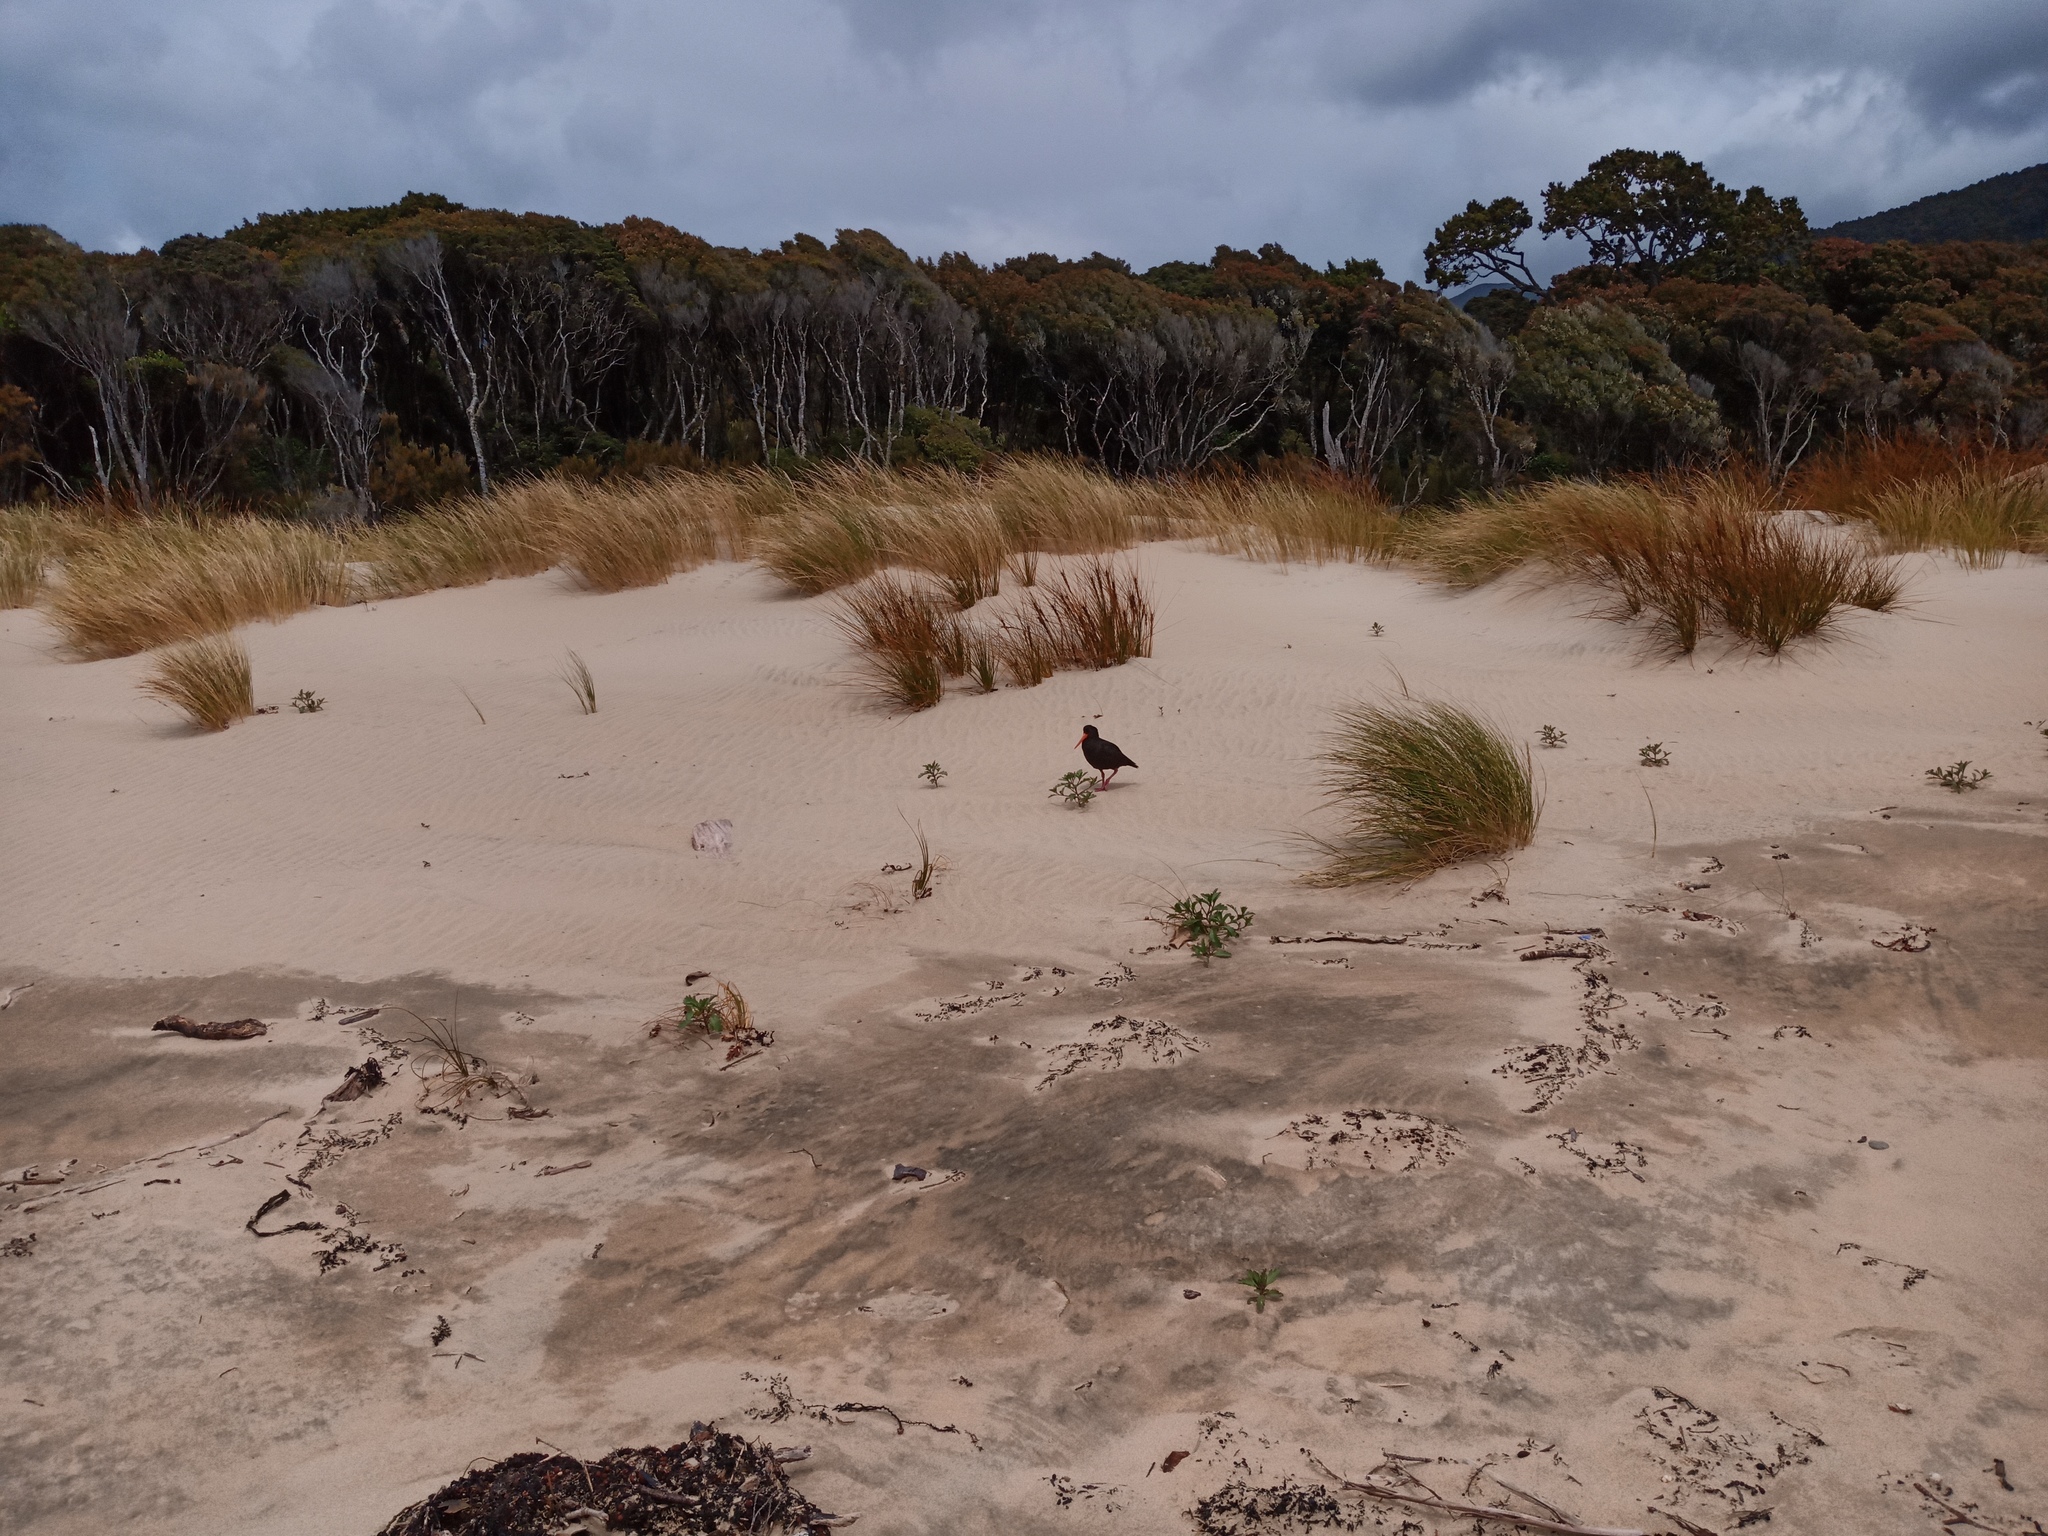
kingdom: Animalia
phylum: Chordata
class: Aves
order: Charadriiformes
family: Haematopodidae
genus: Haematopus
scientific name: Haematopus unicolor
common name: Variable oystercatcher
